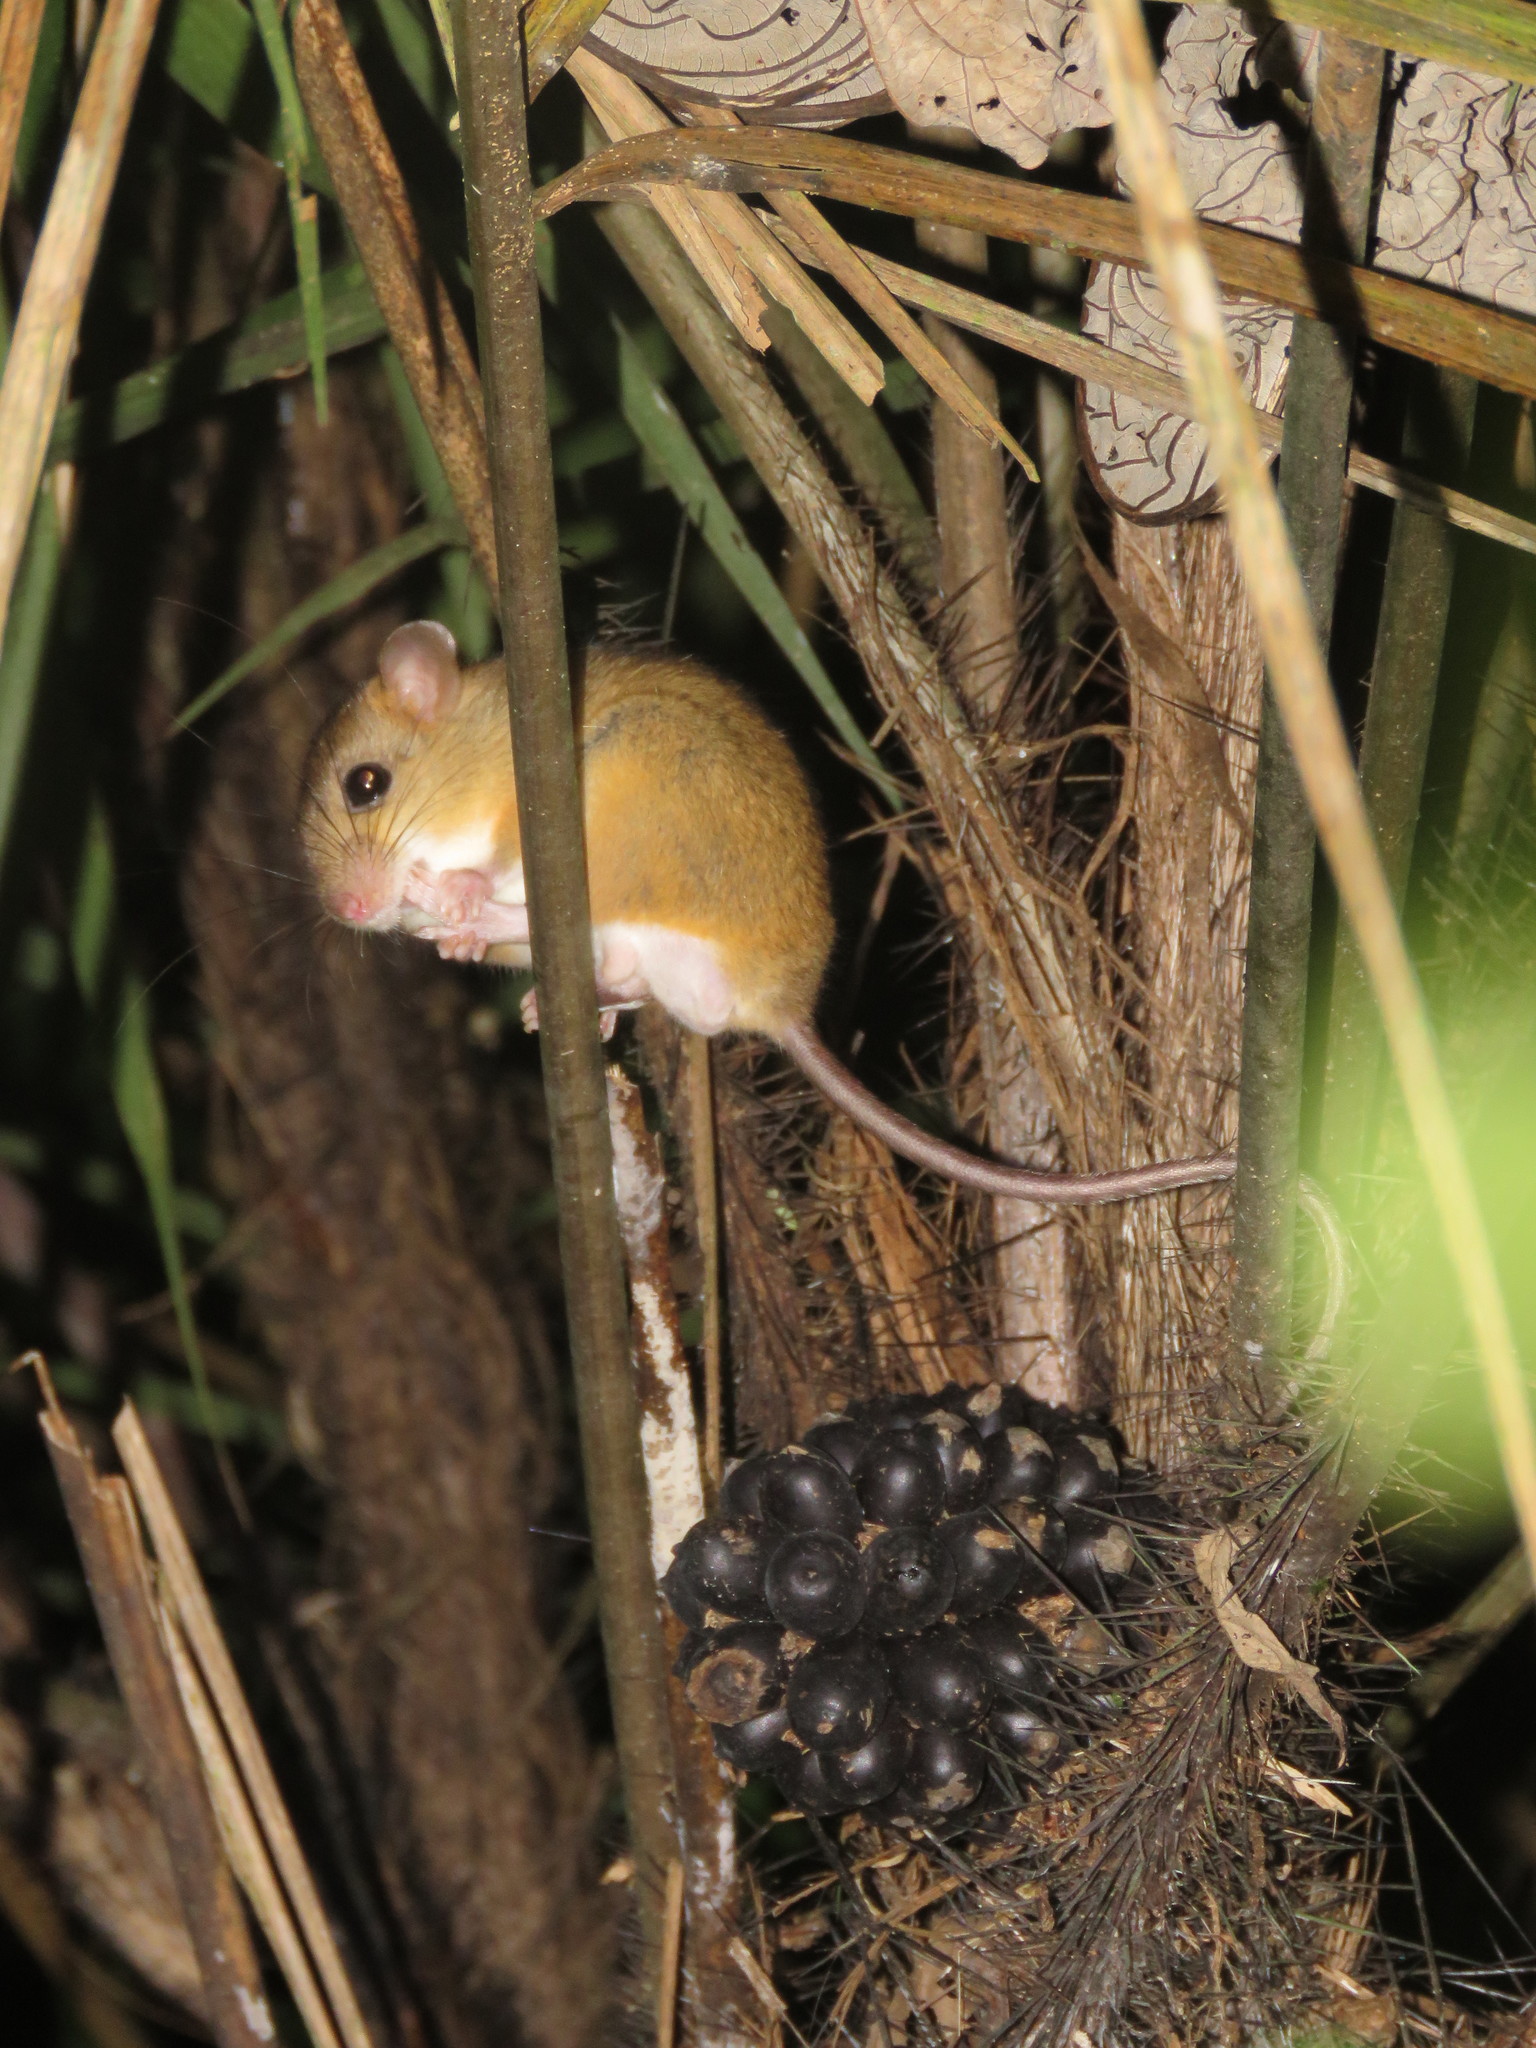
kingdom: Animalia
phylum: Chordata
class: Mammalia
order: Rodentia
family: Cricetidae
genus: Oecomys
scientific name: Oecomys bicolor
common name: White-bellied oecomys
